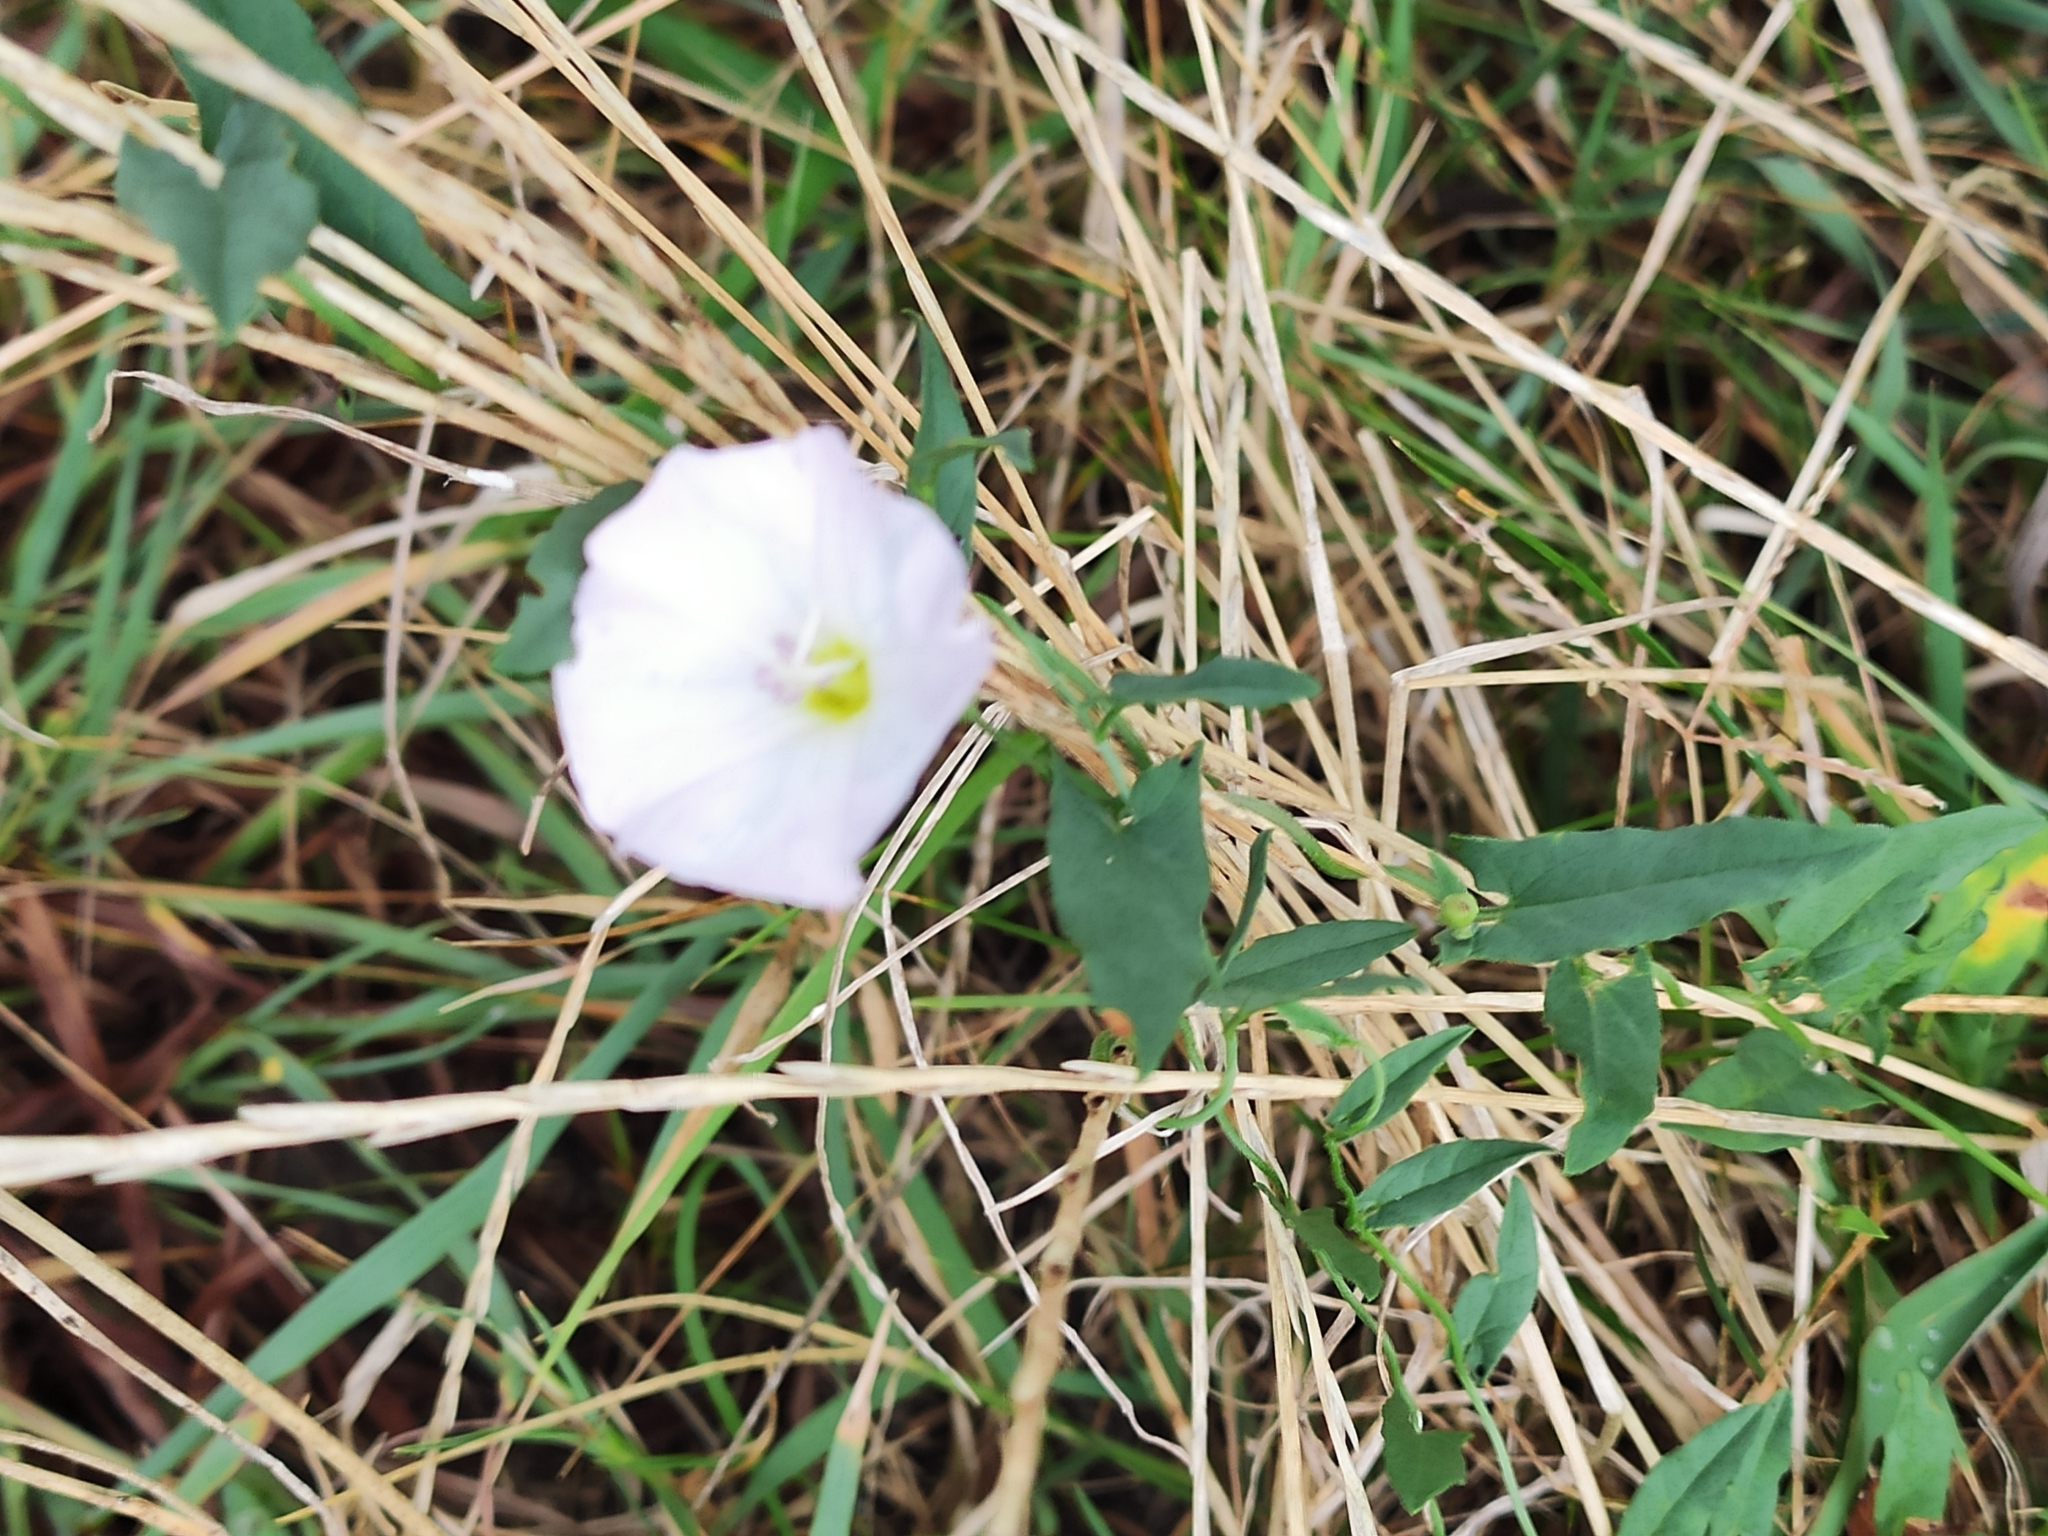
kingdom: Plantae
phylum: Tracheophyta
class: Magnoliopsida
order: Solanales
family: Convolvulaceae
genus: Convolvulus
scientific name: Convolvulus arvensis
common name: Field bindweed
